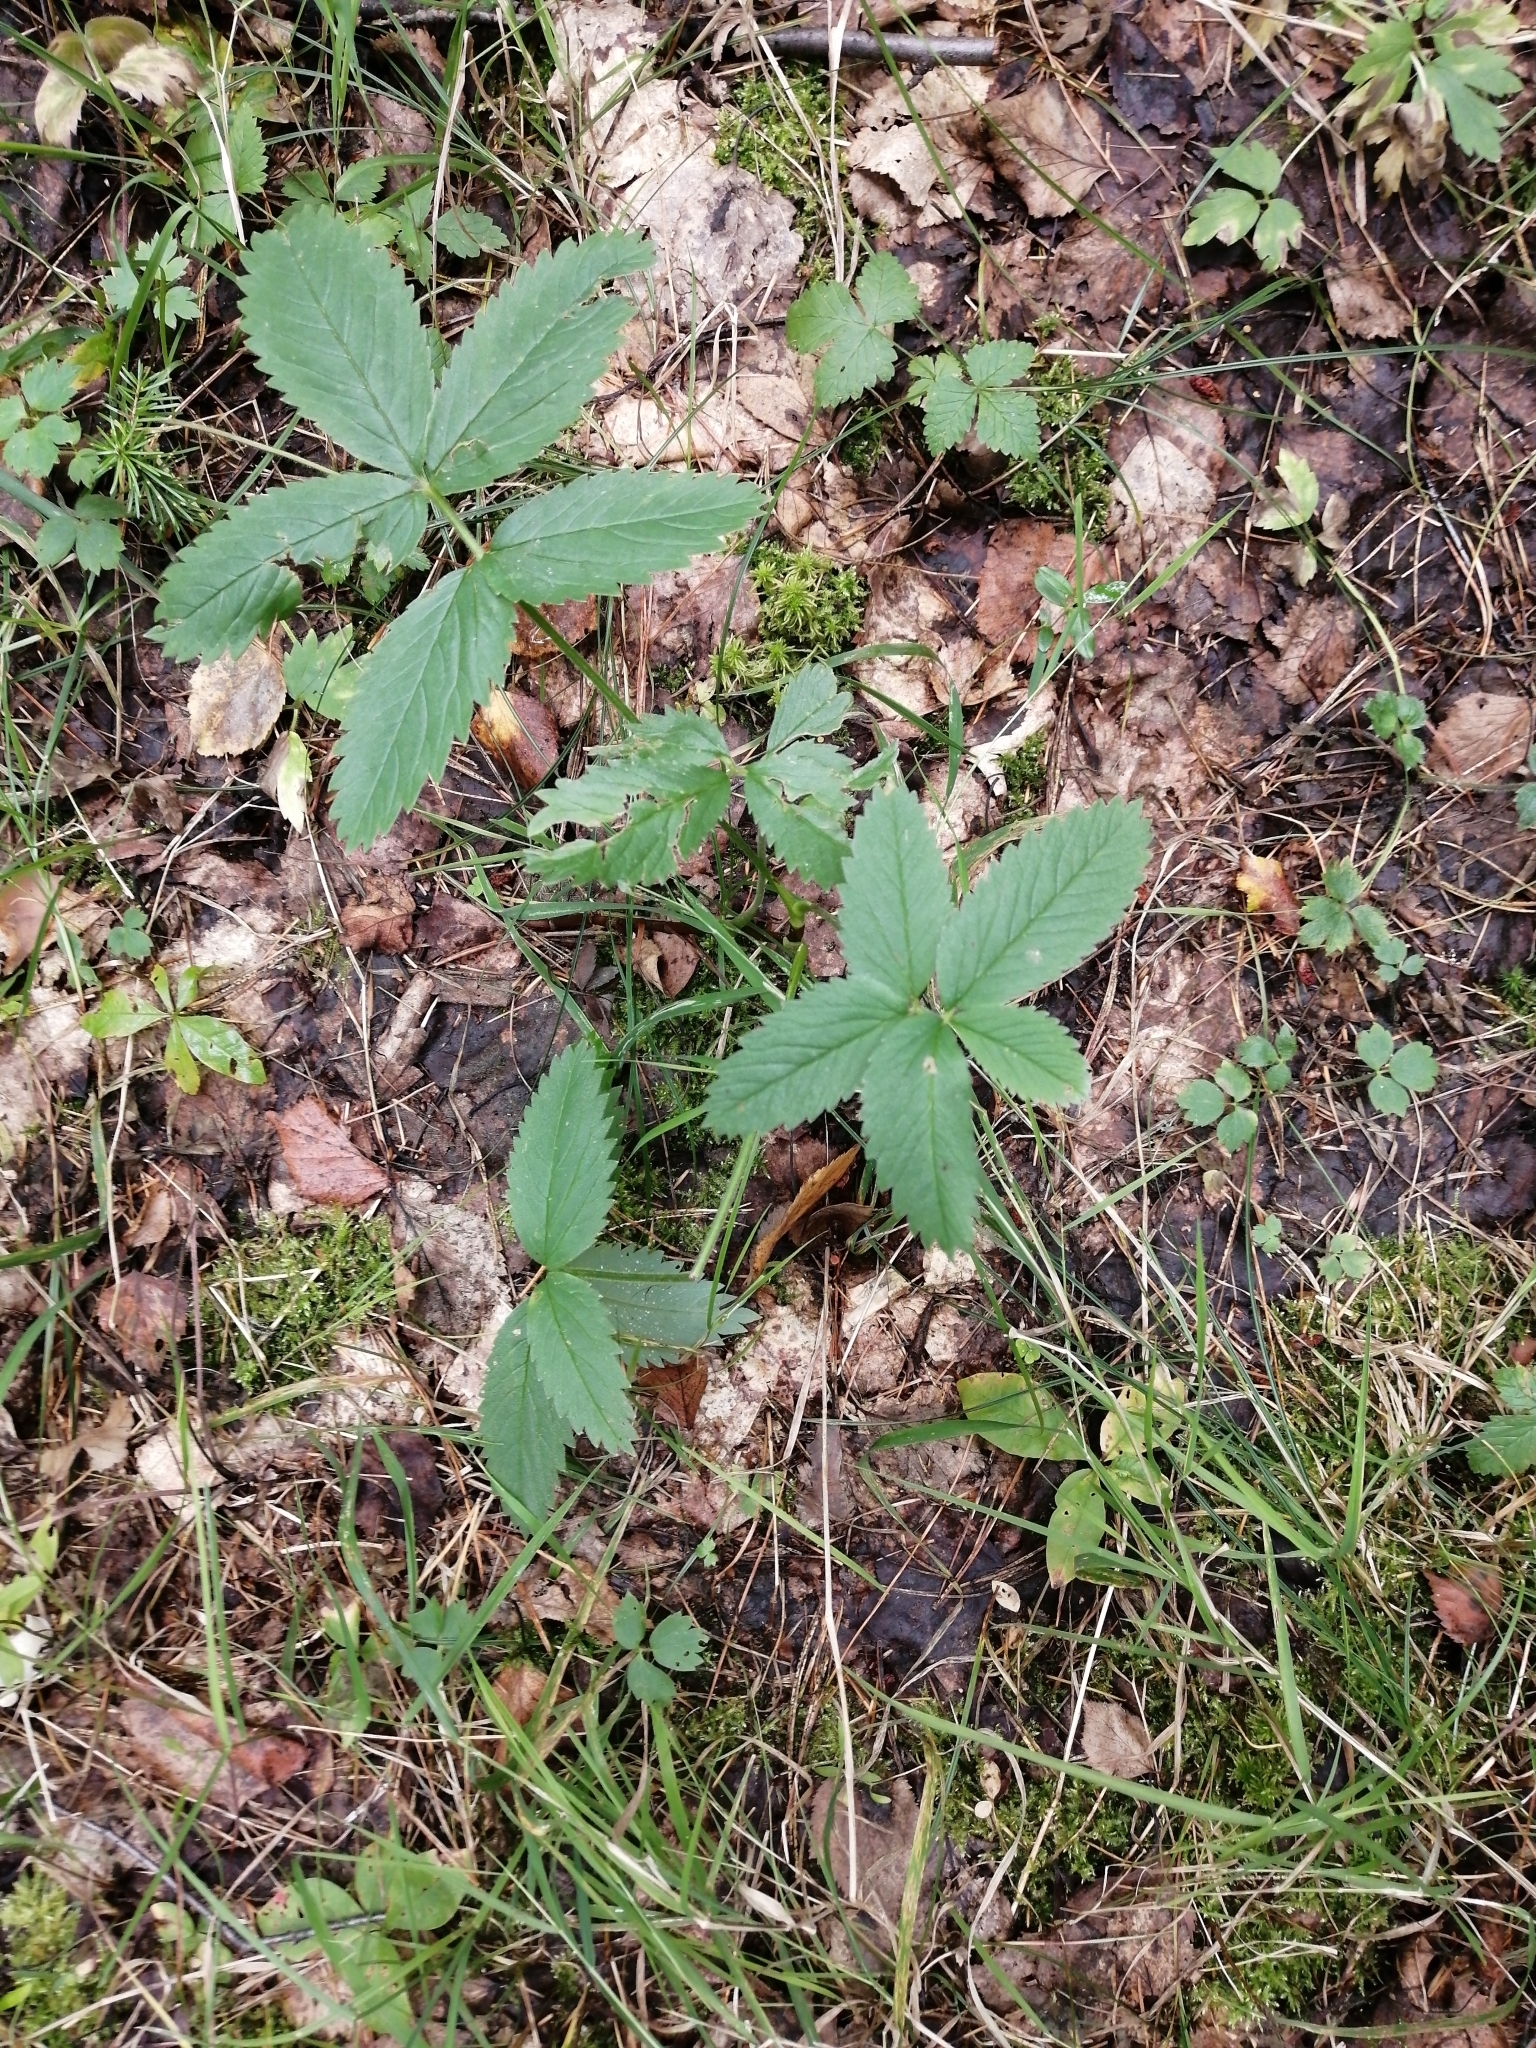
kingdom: Plantae
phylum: Tracheophyta
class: Magnoliopsida
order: Rosales
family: Rosaceae
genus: Comarum
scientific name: Comarum palustre
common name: Marsh cinquefoil
